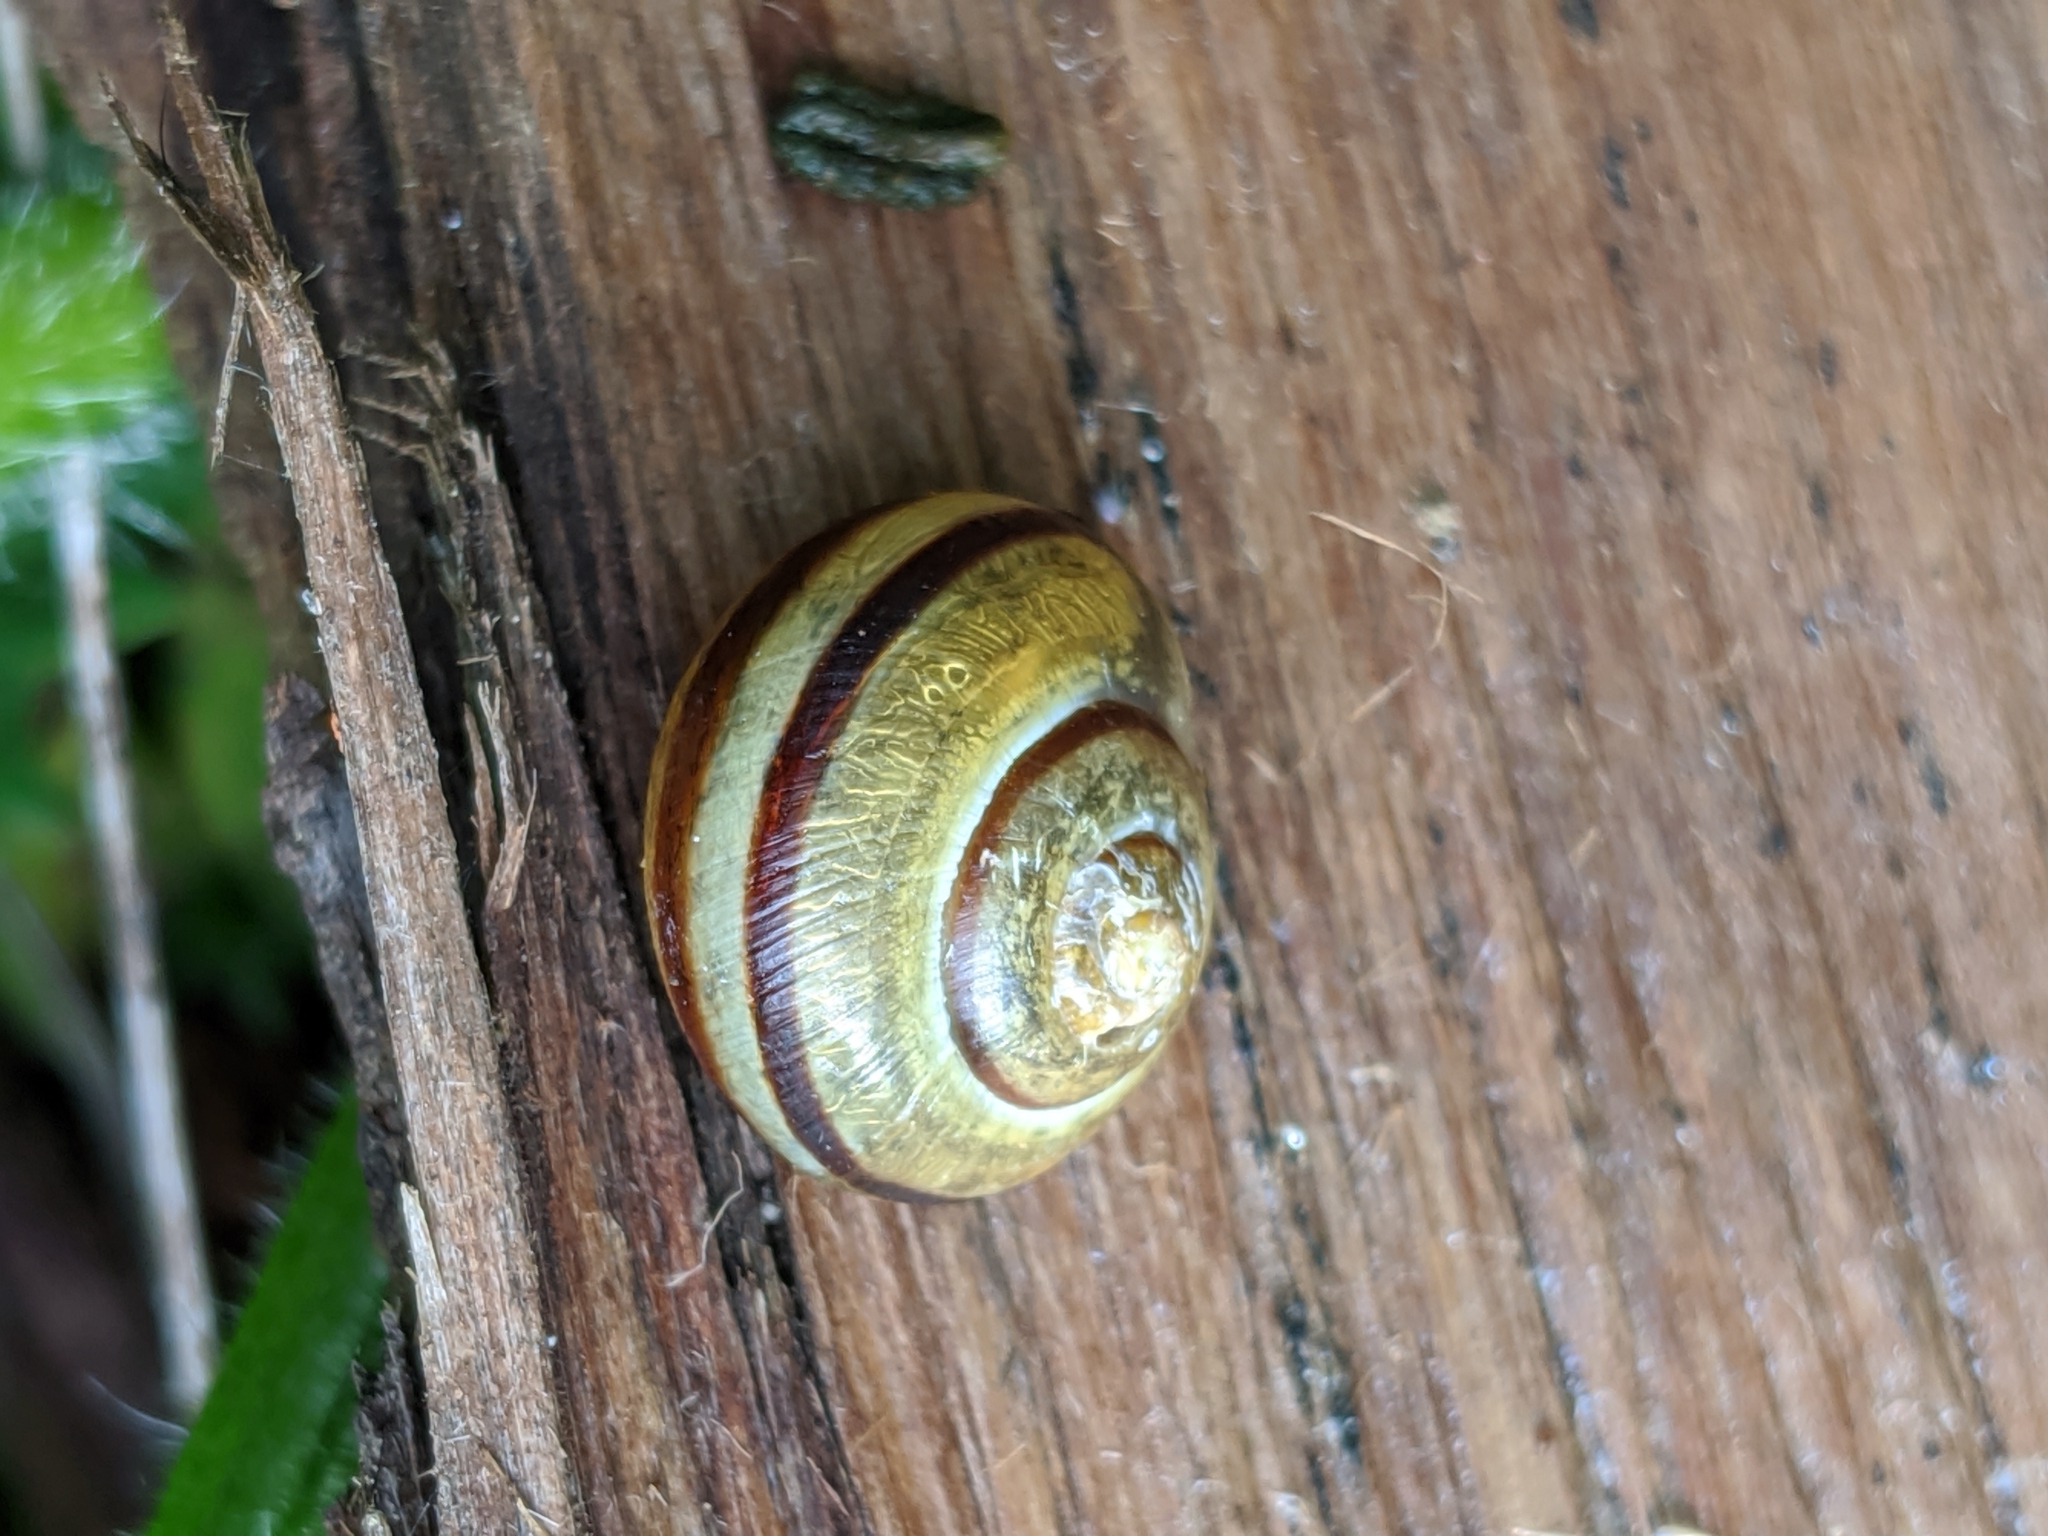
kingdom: Animalia
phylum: Mollusca
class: Gastropoda
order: Stylommatophora
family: Helicidae
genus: Cepaea
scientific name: Cepaea nemoralis
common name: Grovesnail
